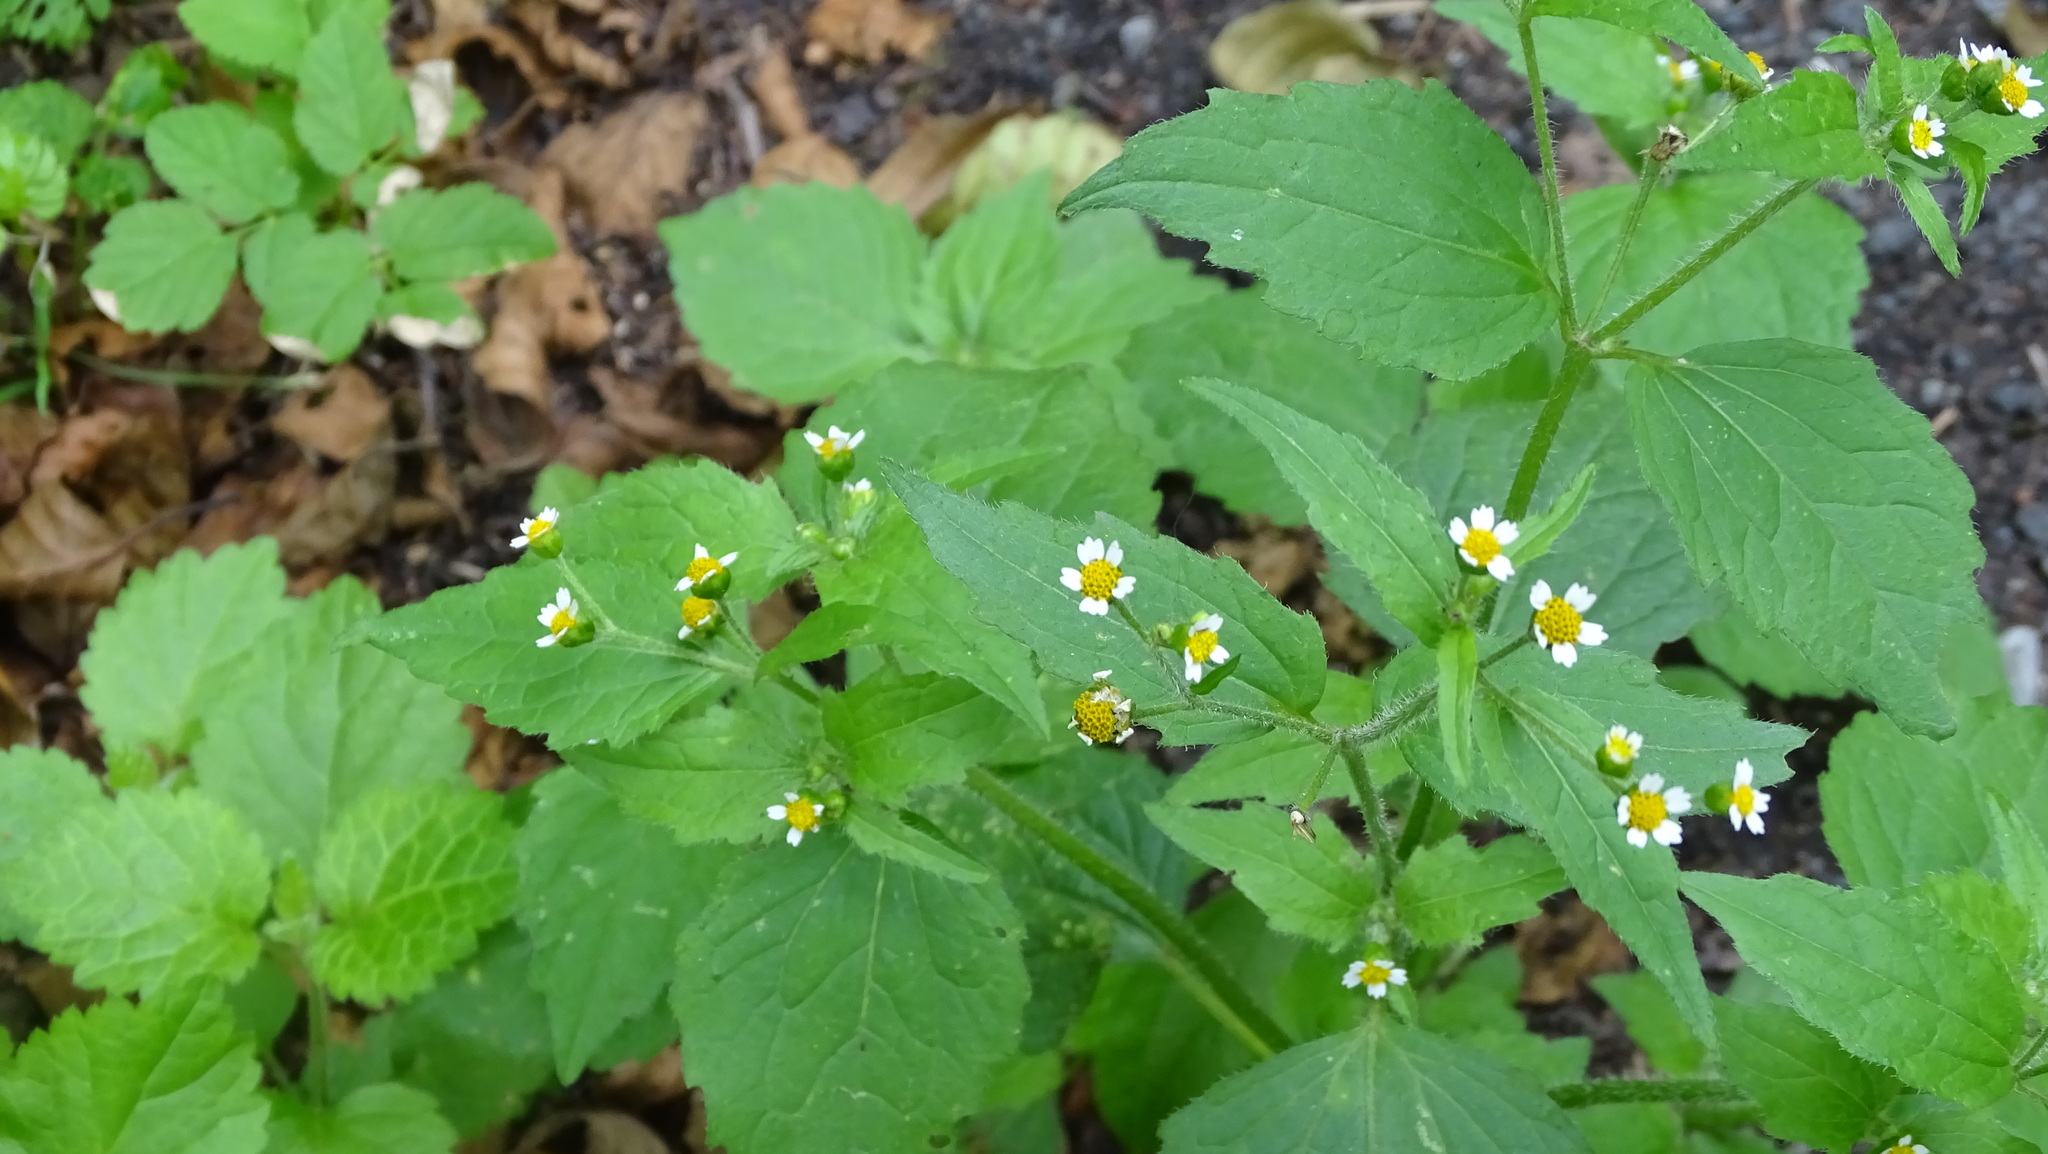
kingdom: Plantae
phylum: Tracheophyta
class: Magnoliopsida
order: Asterales
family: Asteraceae
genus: Galinsoga
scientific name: Galinsoga quadriradiata
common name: Shaggy soldier
